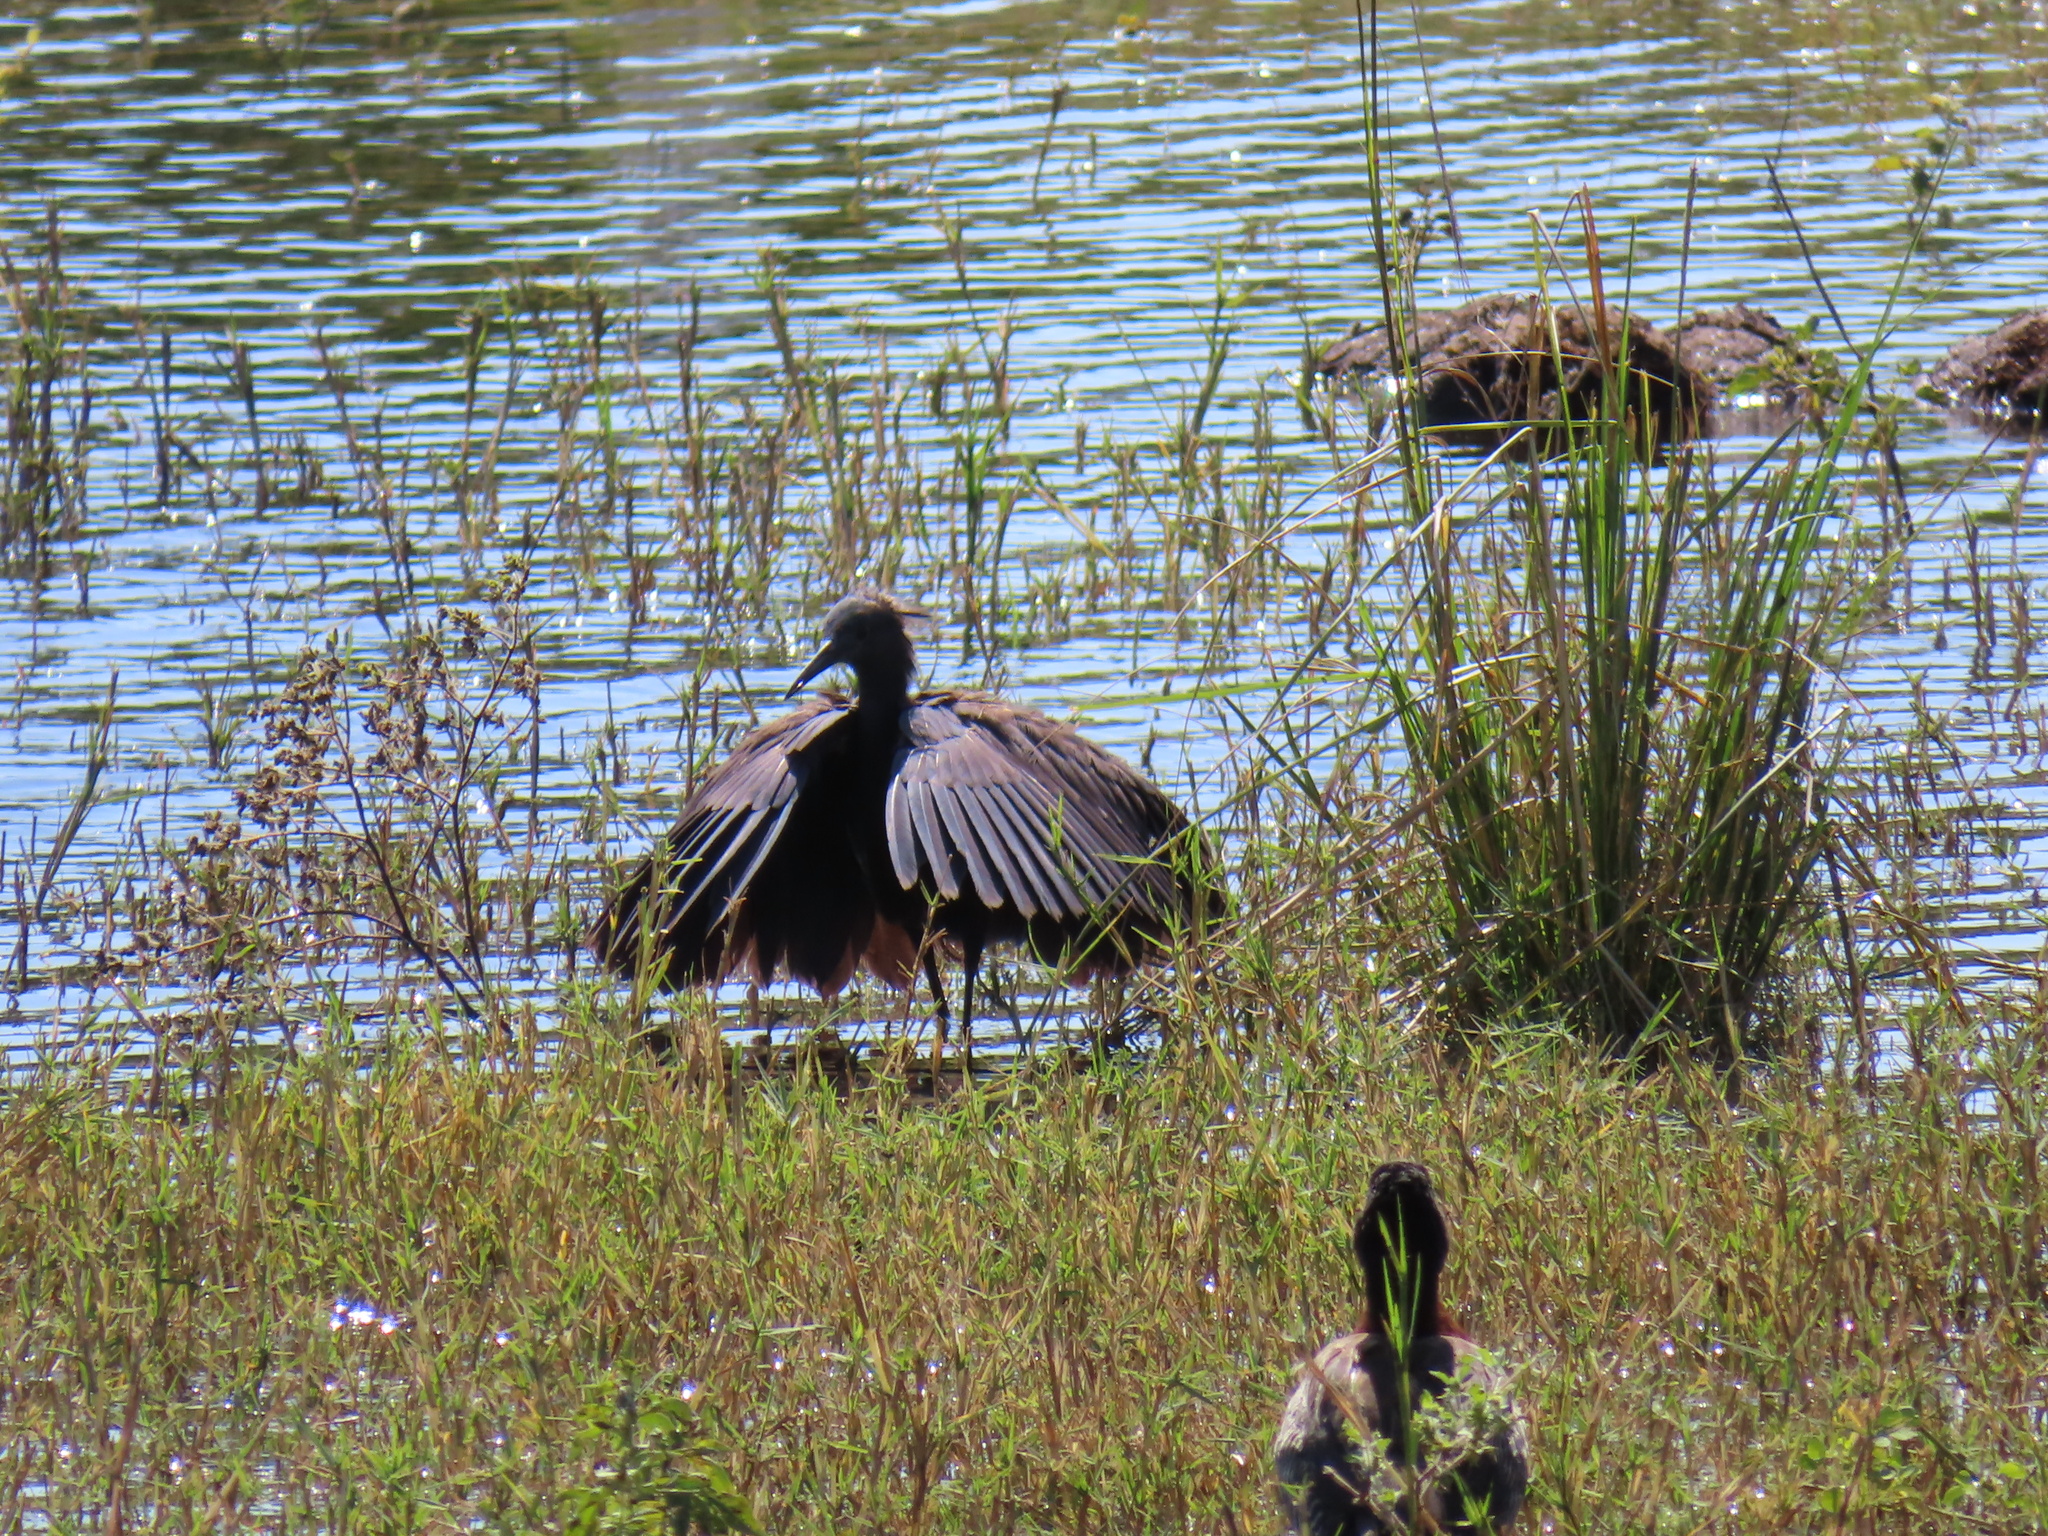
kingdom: Animalia
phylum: Chordata
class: Aves
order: Pelecaniformes
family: Ardeidae
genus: Egretta
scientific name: Egretta ardesiaca
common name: Black heron
